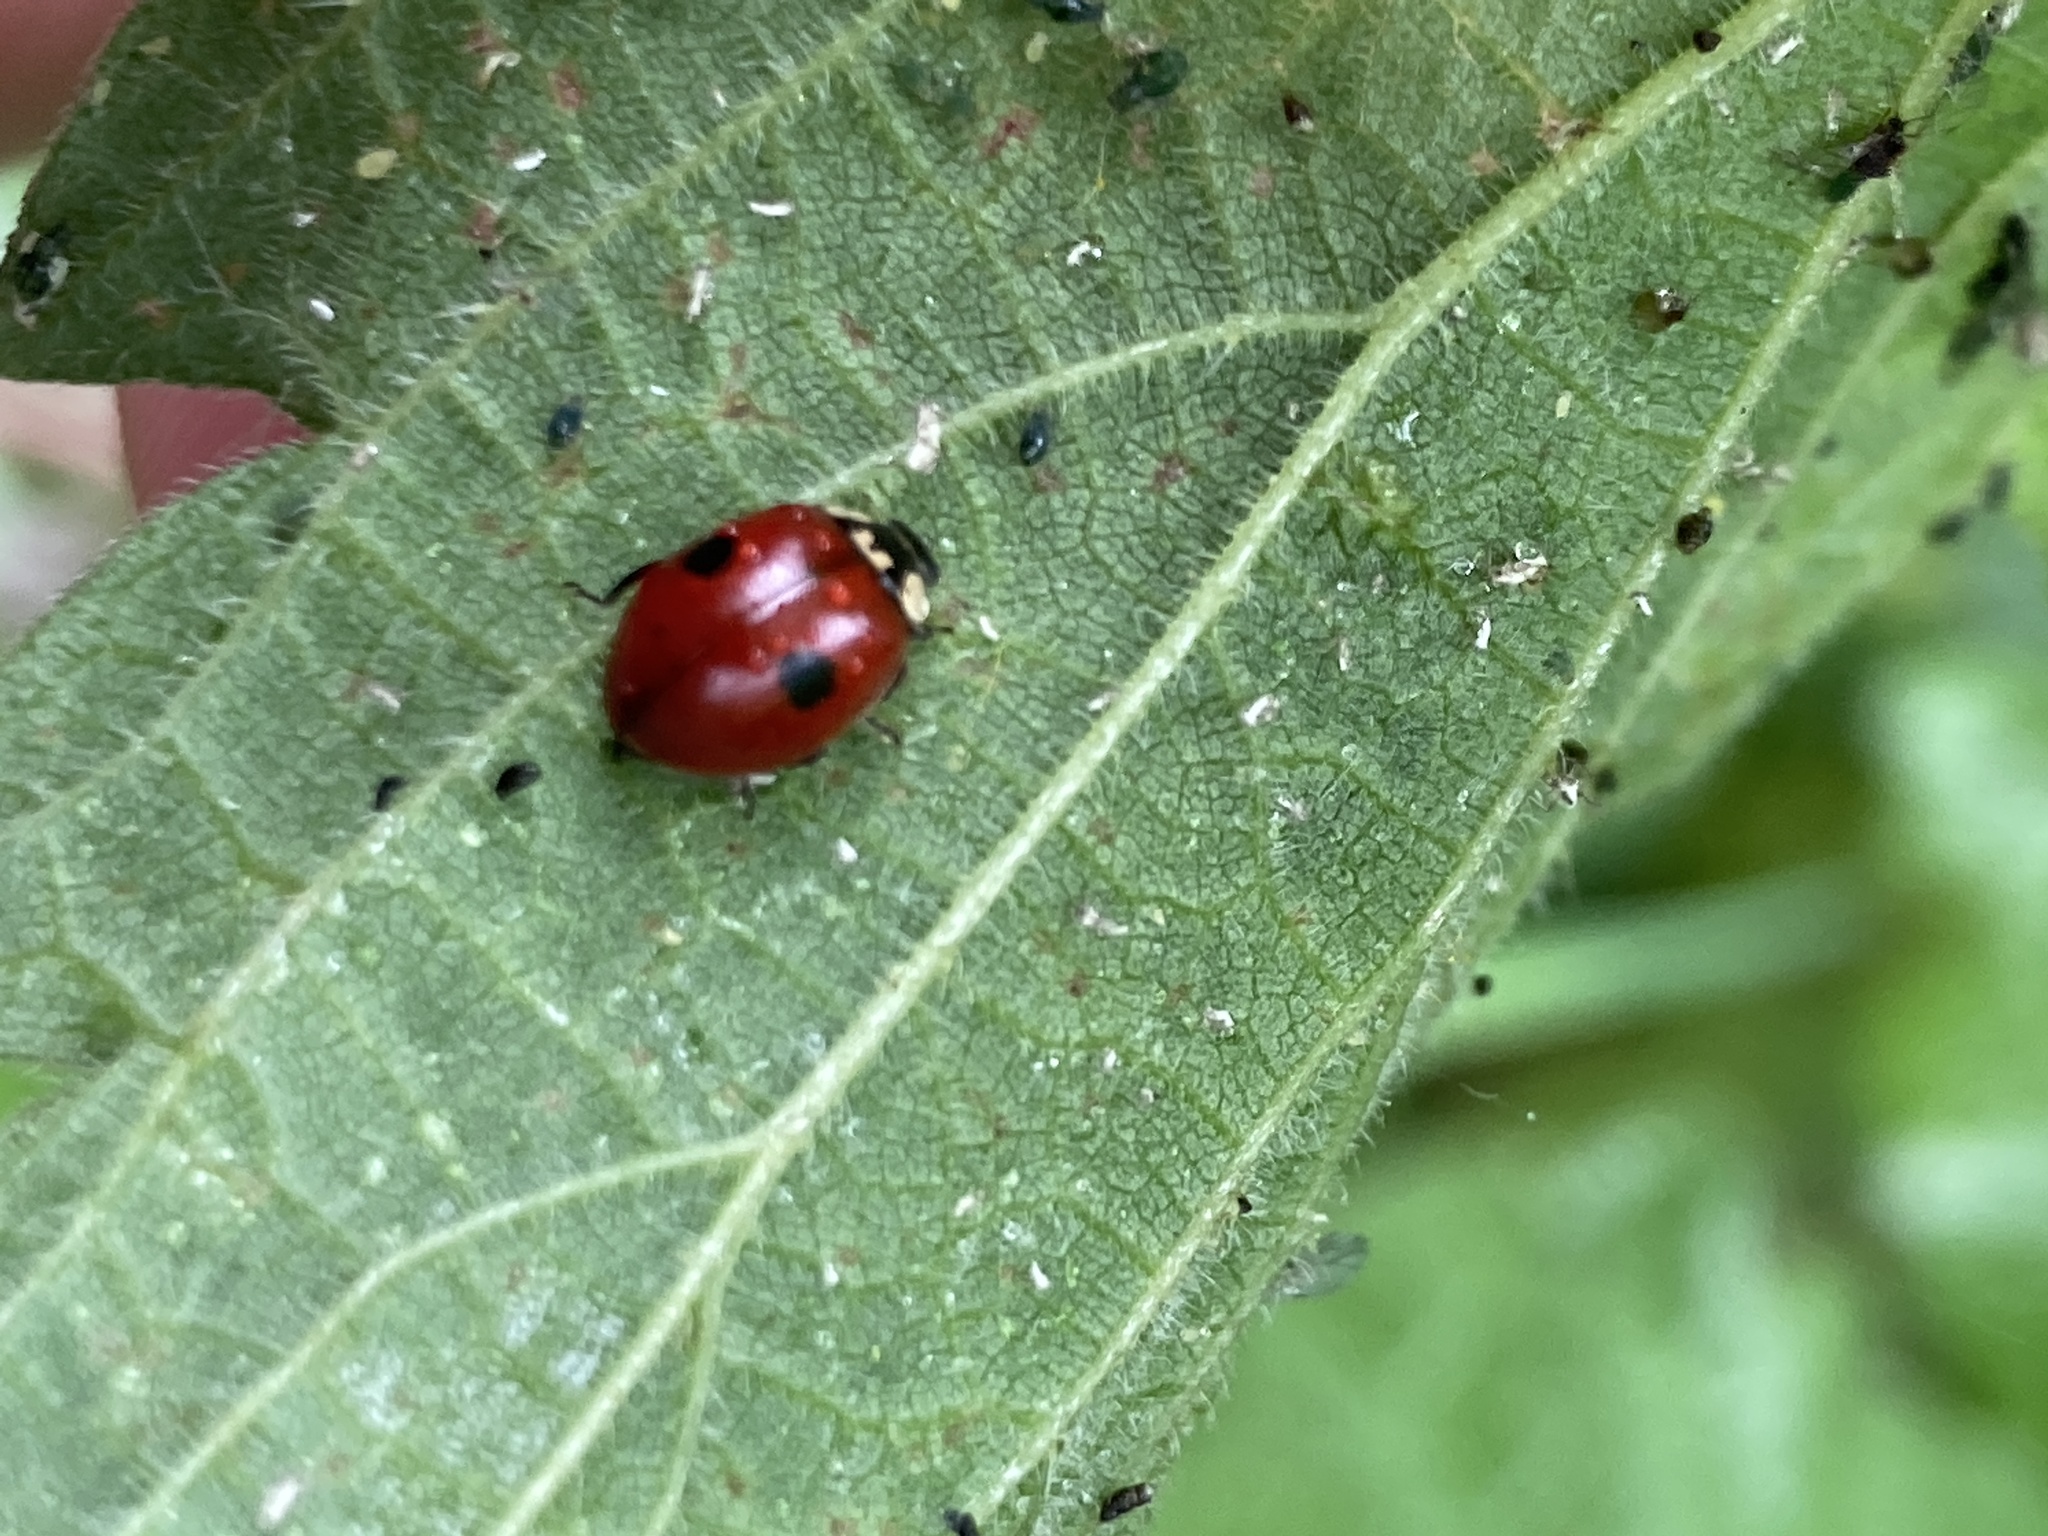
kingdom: Animalia
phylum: Arthropoda
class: Insecta
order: Coleoptera
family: Coccinellidae
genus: Adalia
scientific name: Adalia bipunctata
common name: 2-spot ladybird
